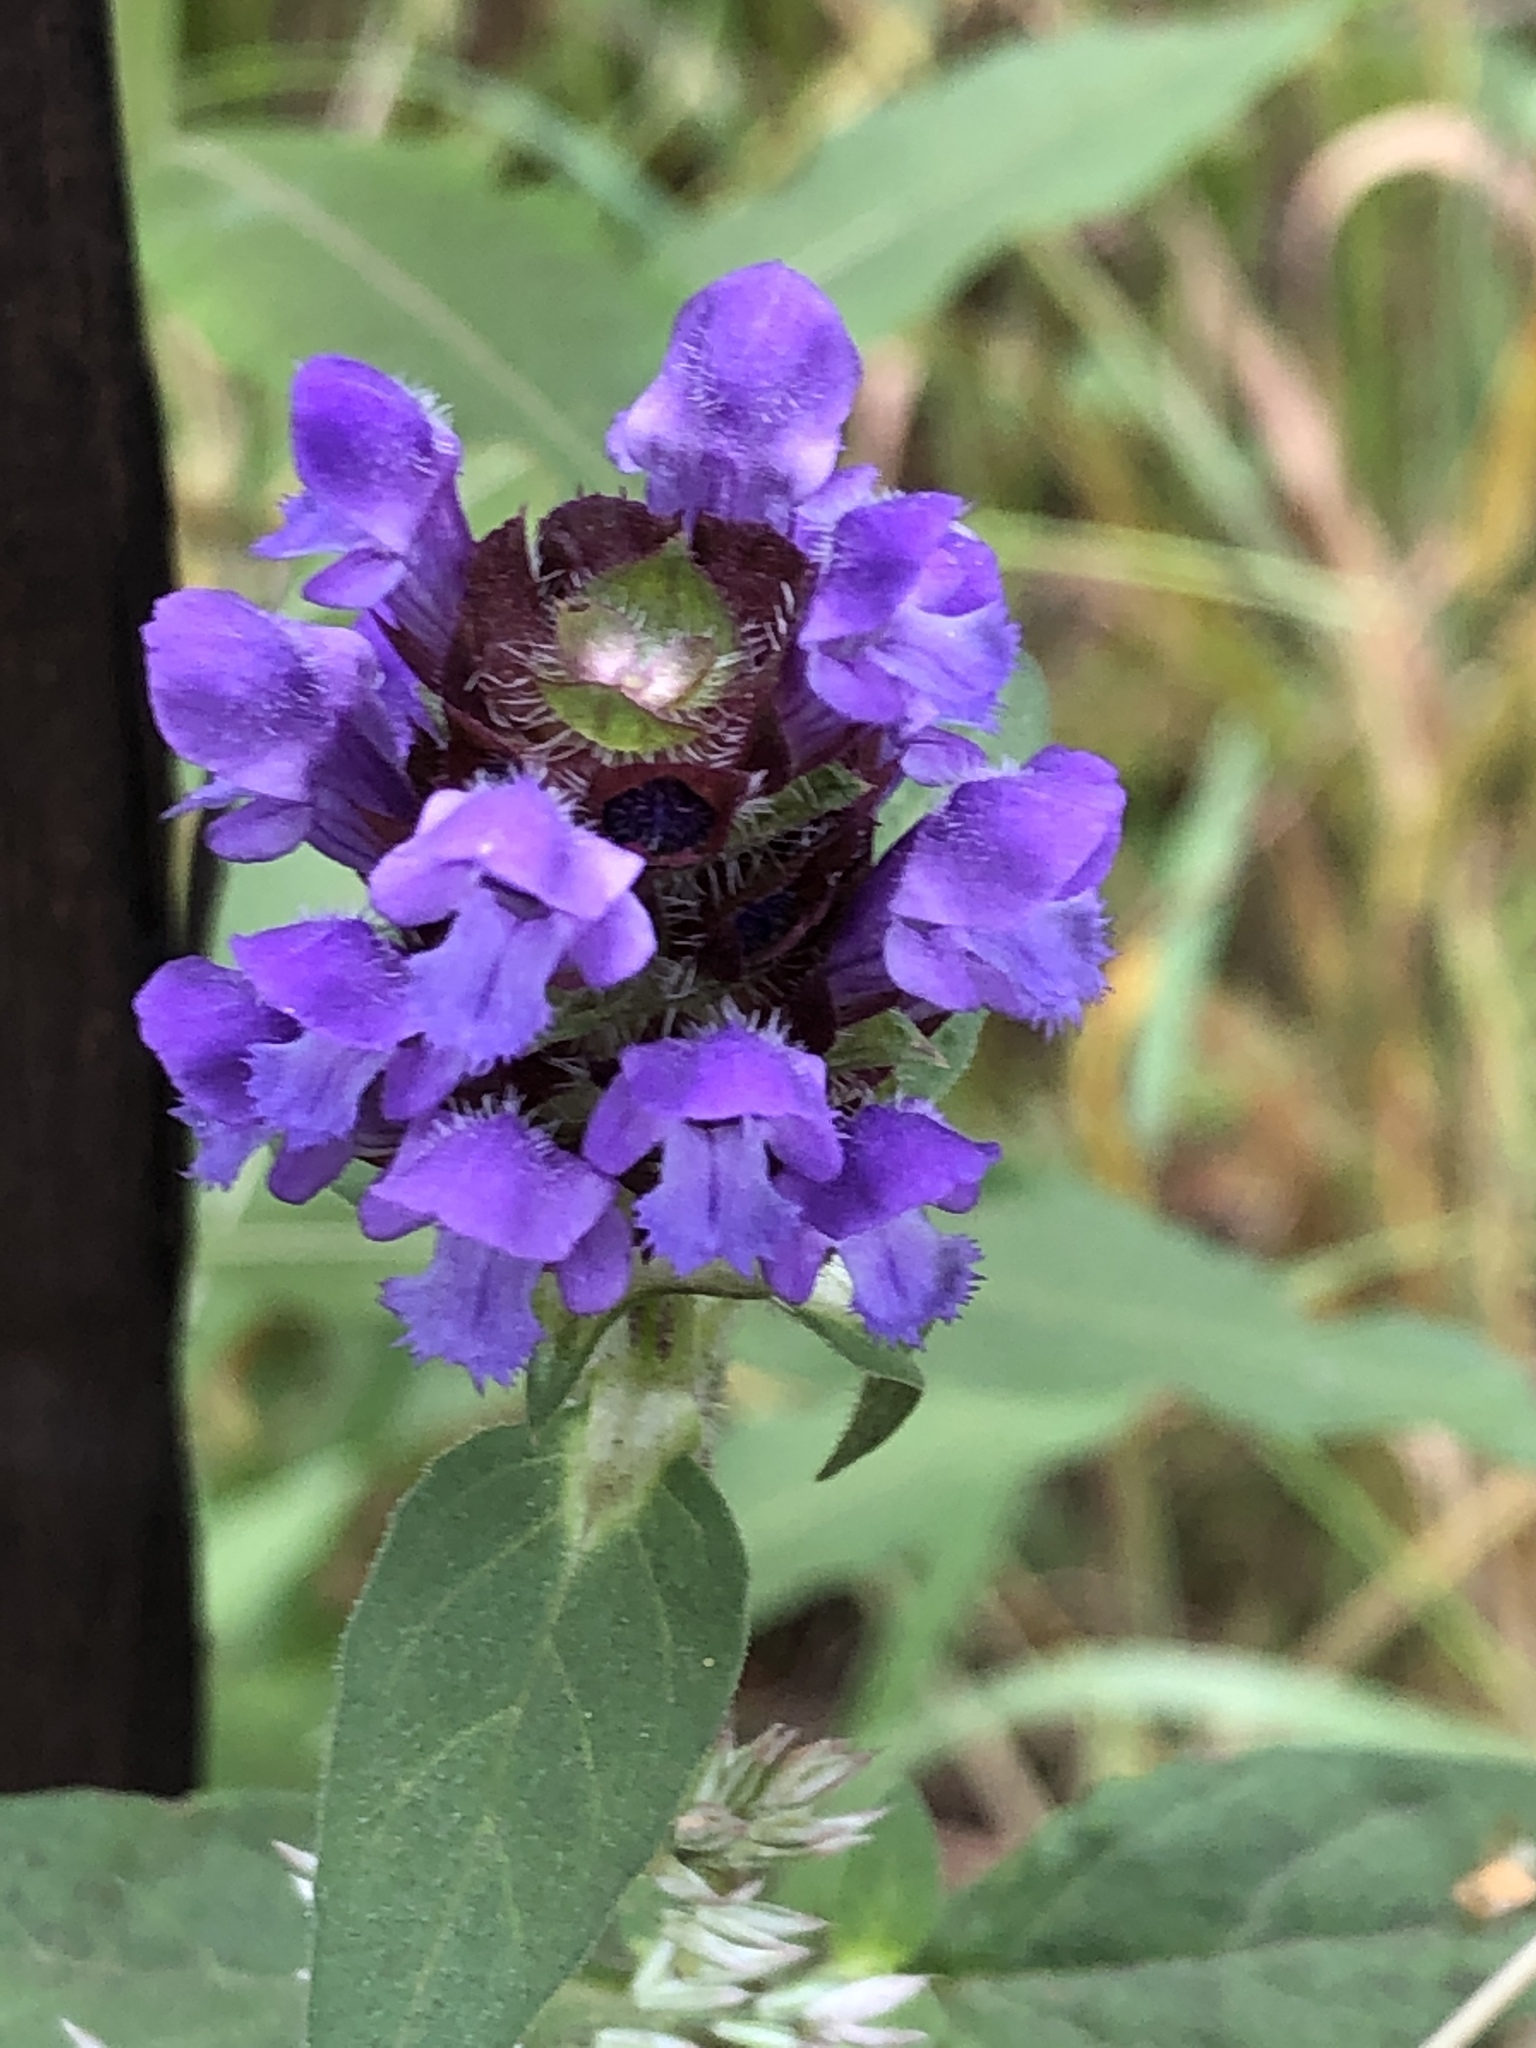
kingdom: Plantae
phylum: Tracheophyta
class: Magnoliopsida
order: Lamiales
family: Lamiaceae
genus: Prunella
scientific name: Prunella vulgaris
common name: Heal-all
